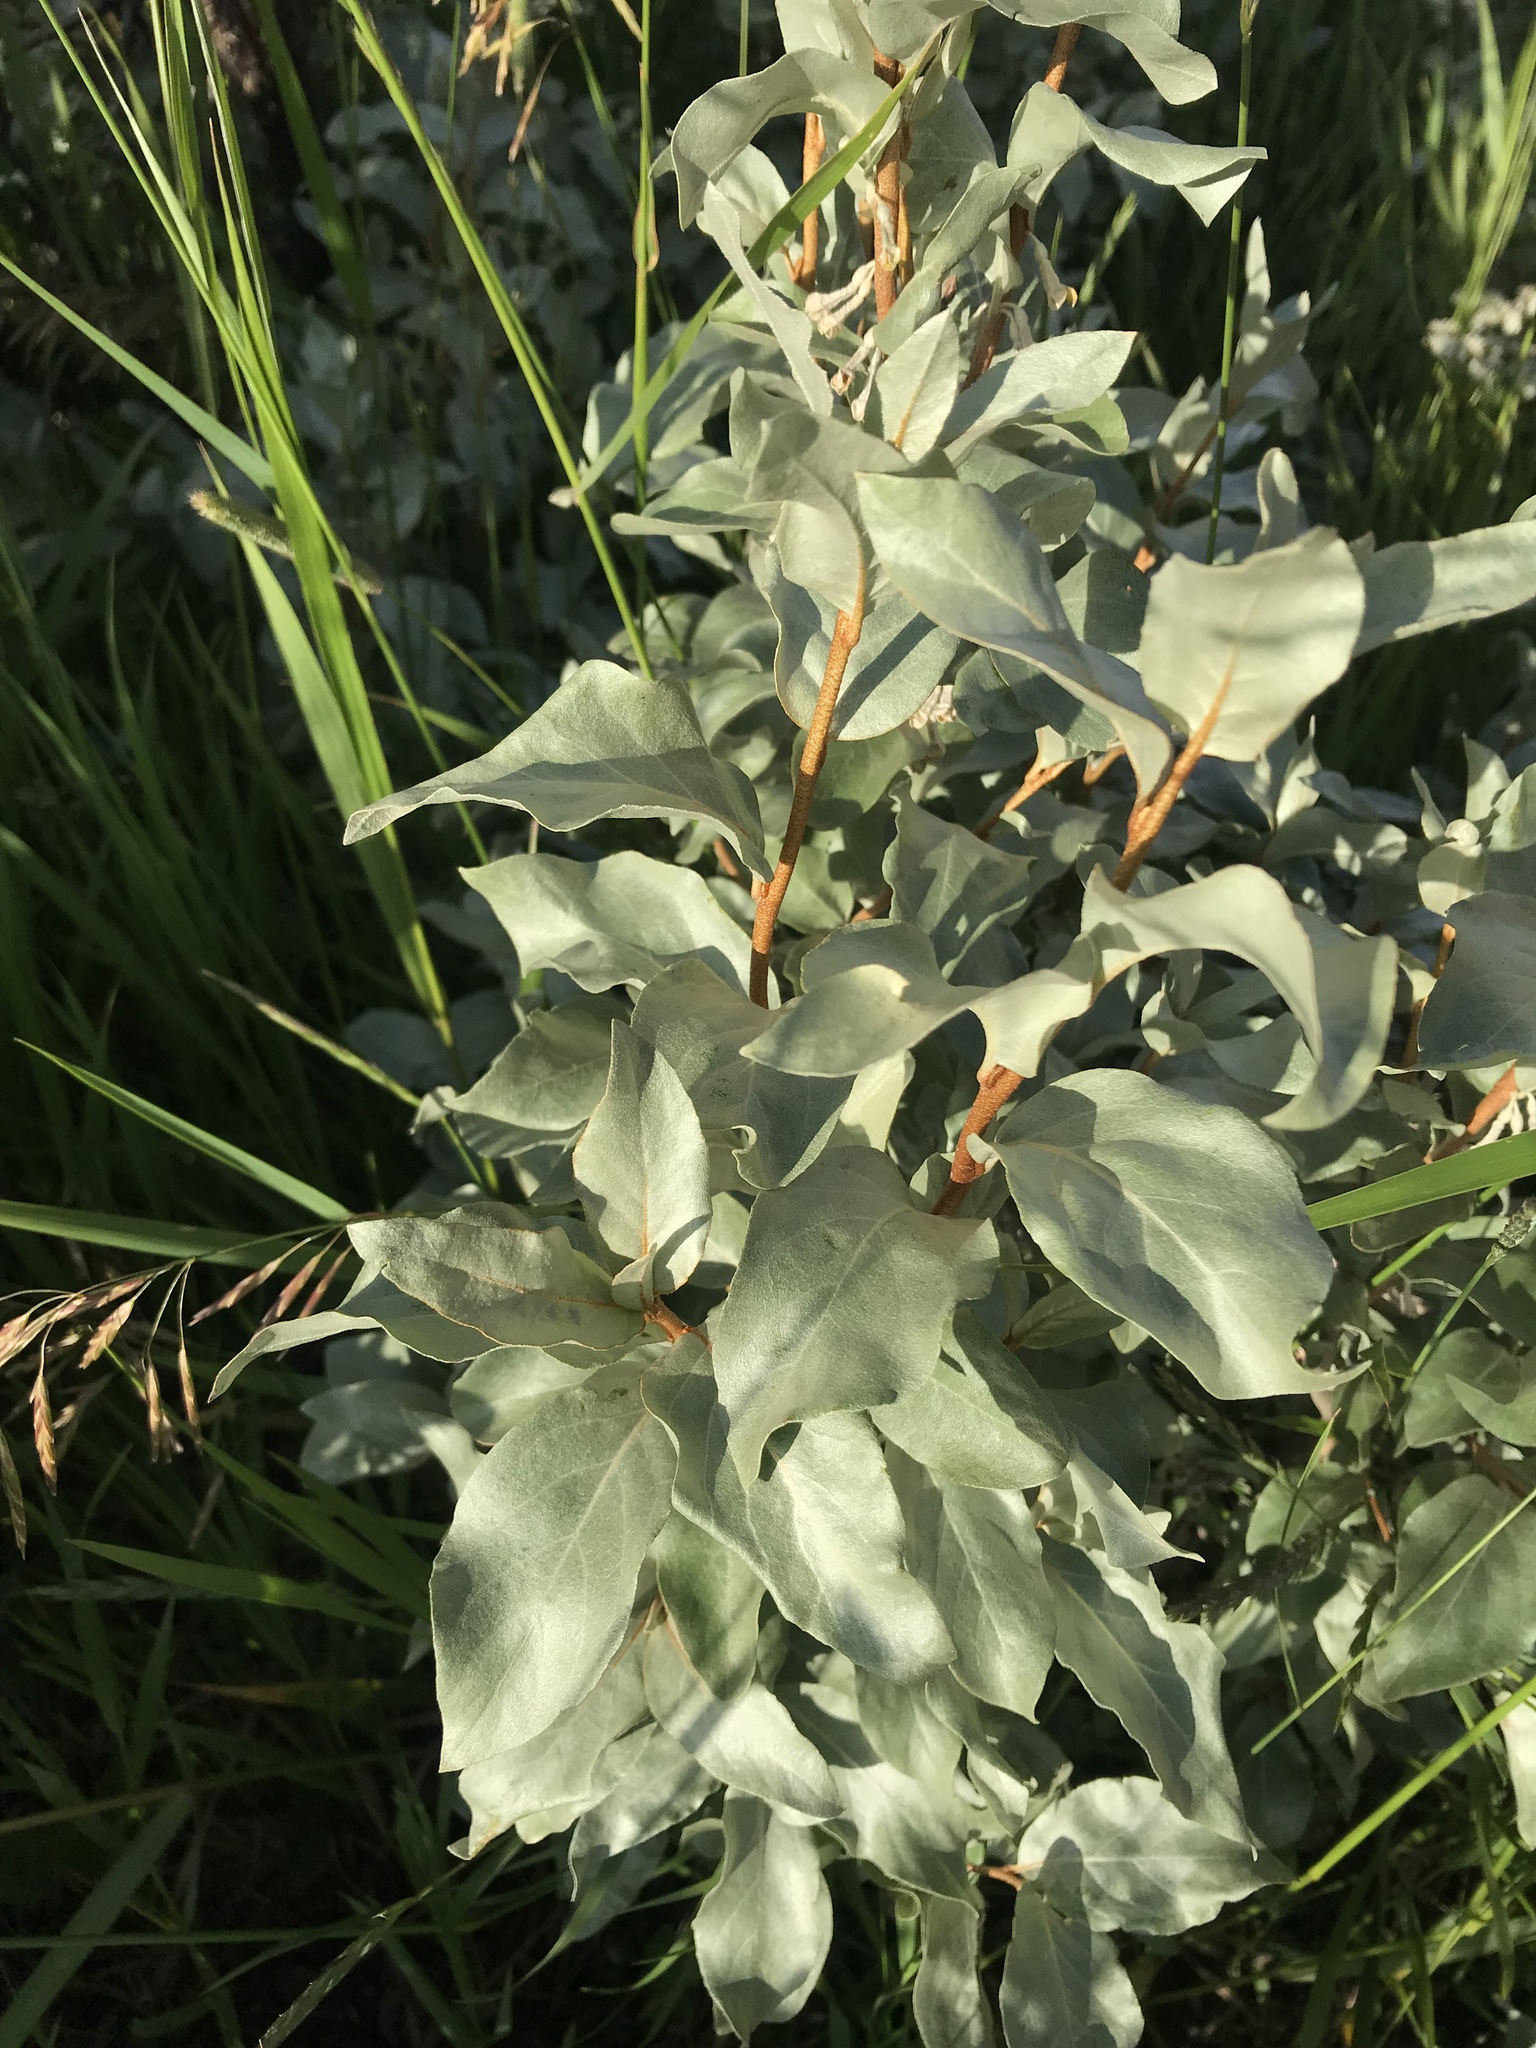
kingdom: Plantae
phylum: Tracheophyta
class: Magnoliopsida
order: Rosales
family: Elaeagnaceae
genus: Elaeagnus
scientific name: Elaeagnus commutata
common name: Silverberry
